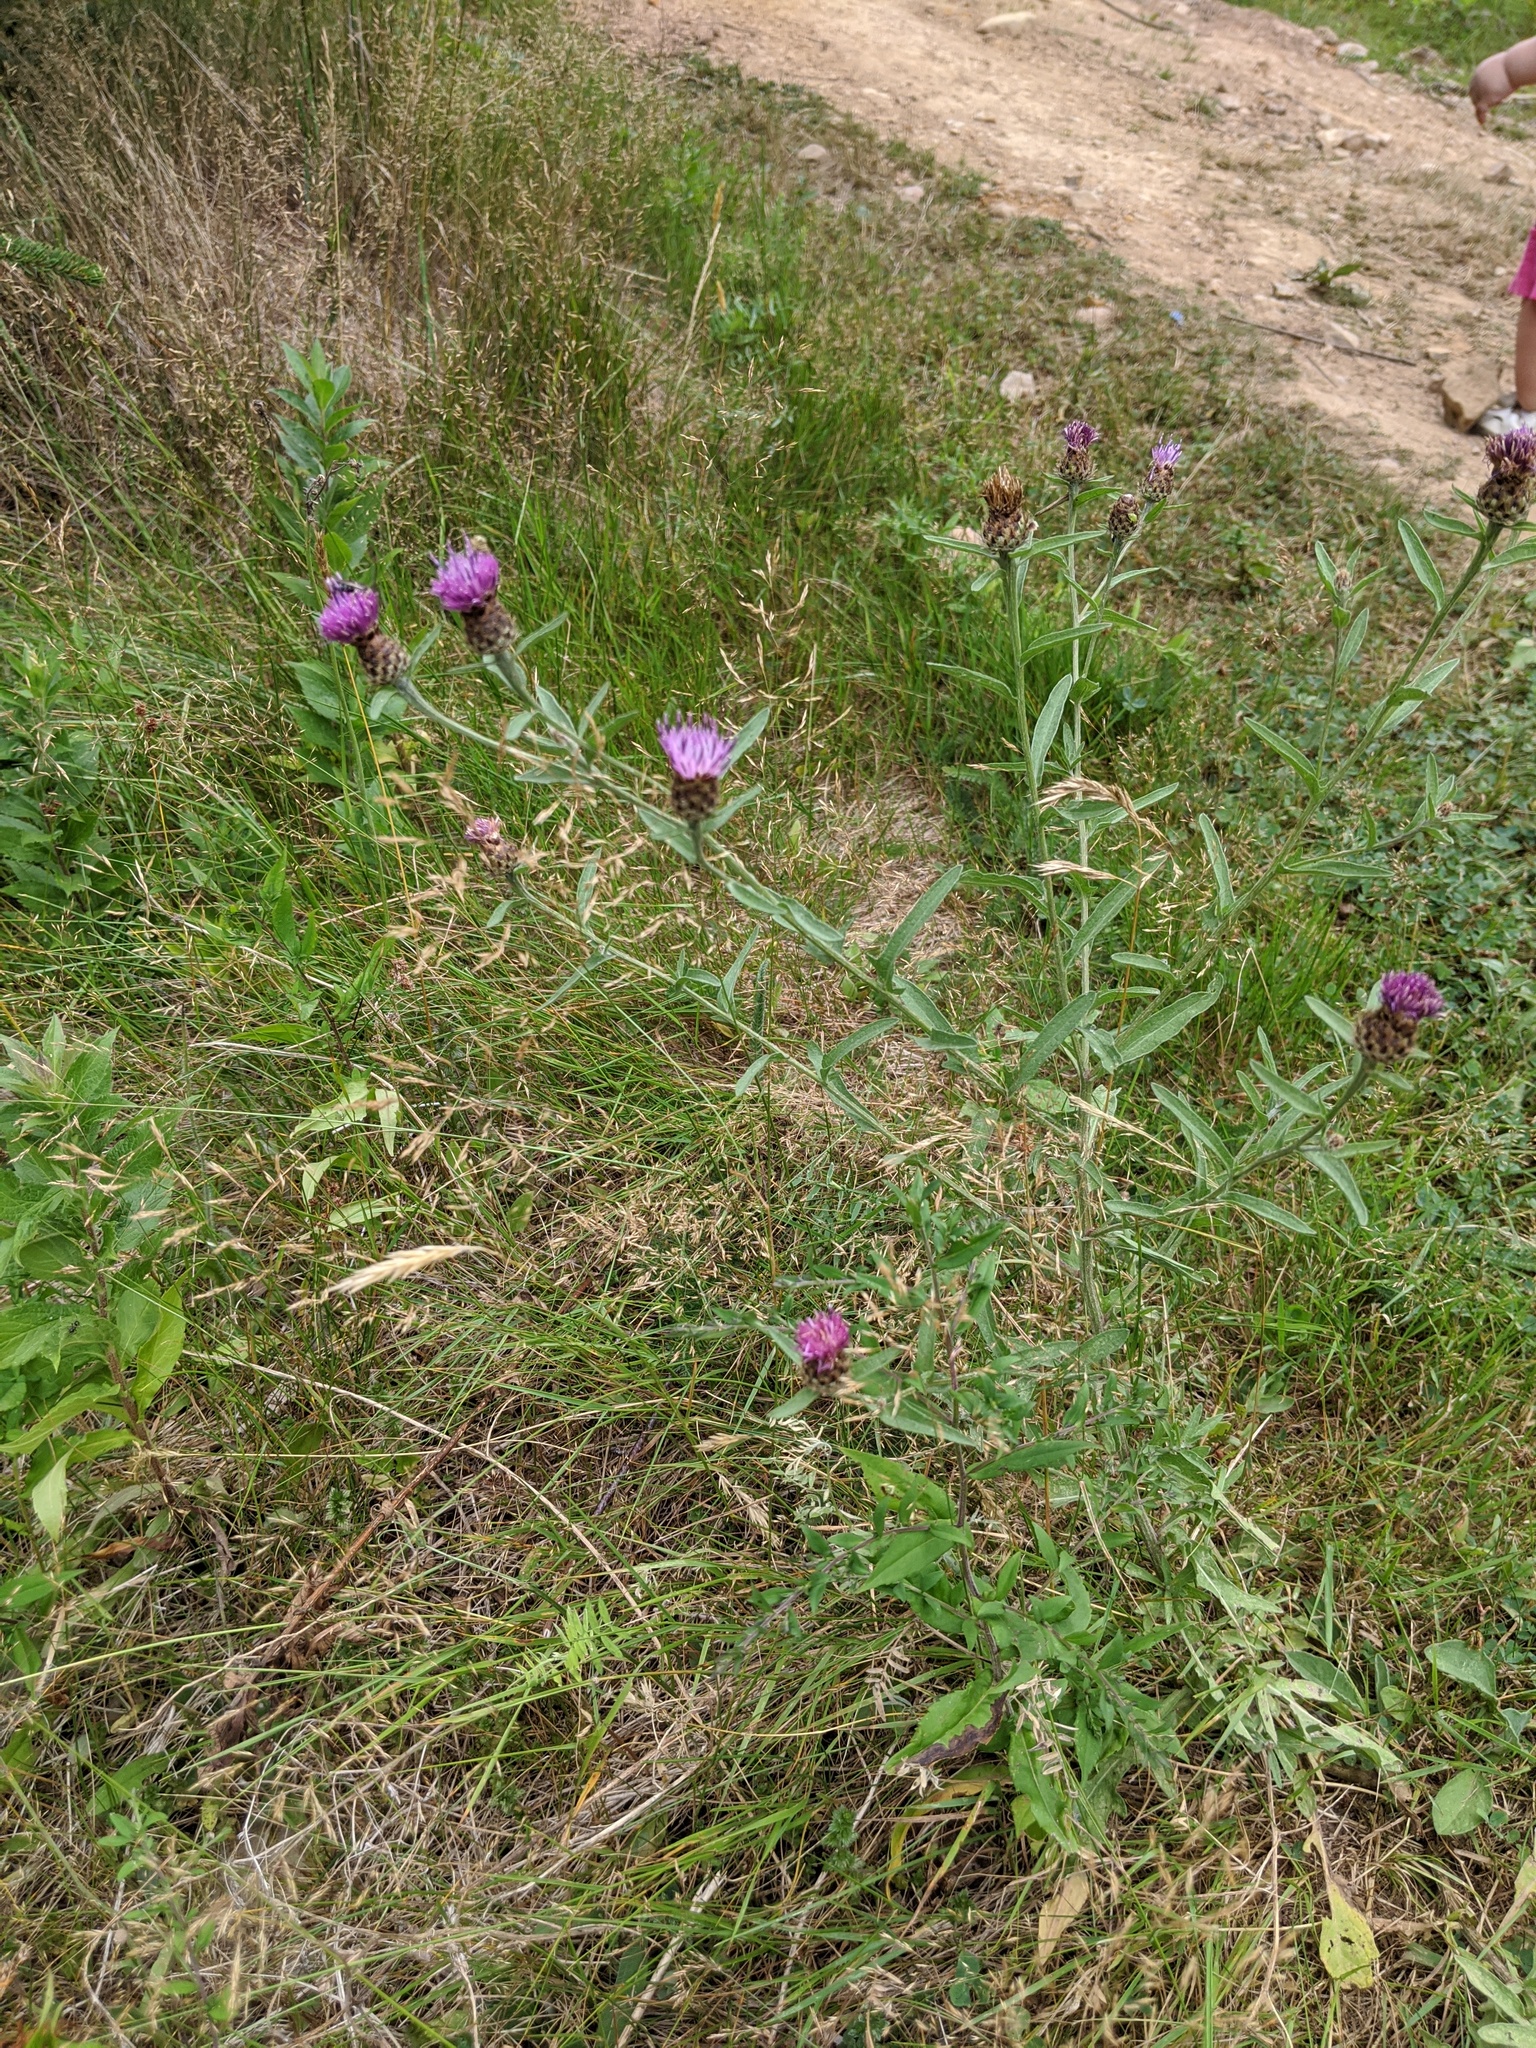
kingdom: Plantae
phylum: Tracheophyta
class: Magnoliopsida
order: Asterales
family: Asteraceae
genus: Centaurea
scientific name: Centaurea nigra
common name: Lesser knapweed
